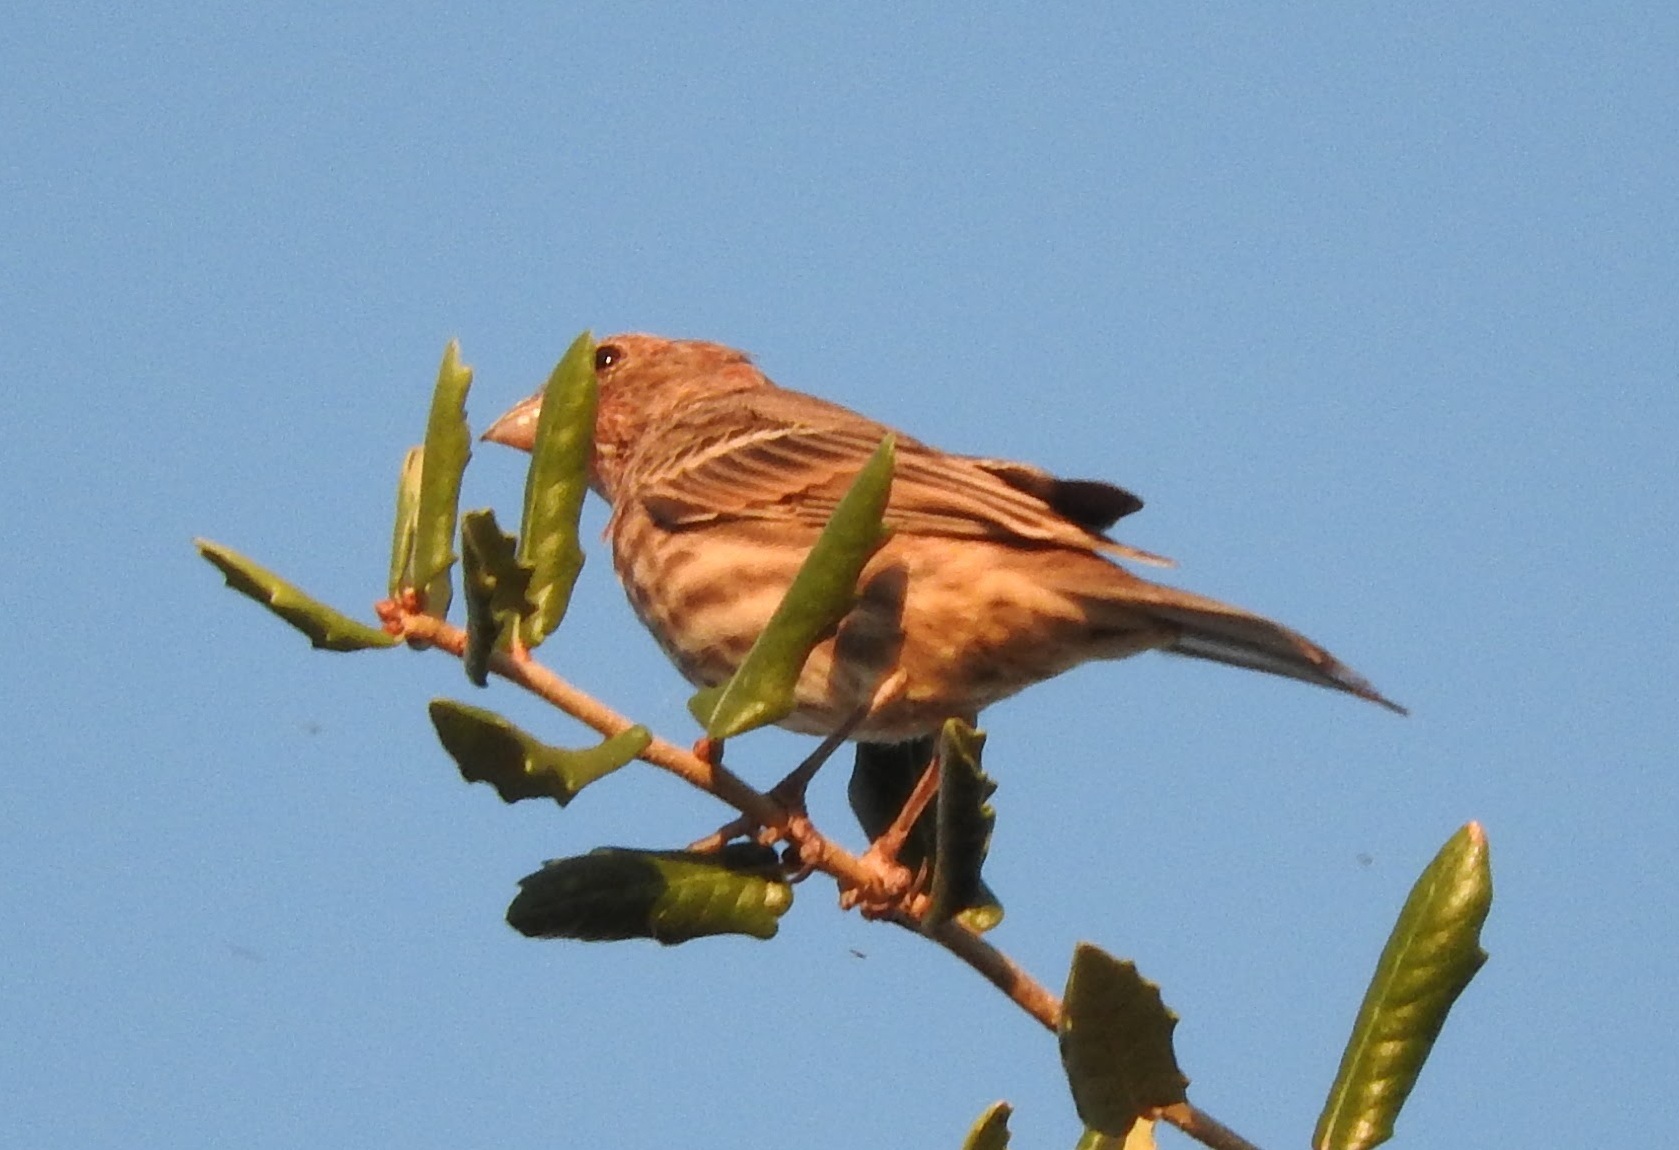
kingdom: Animalia
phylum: Chordata
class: Aves
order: Passeriformes
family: Fringillidae
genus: Haemorhous
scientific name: Haemorhous mexicanus
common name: House finch
